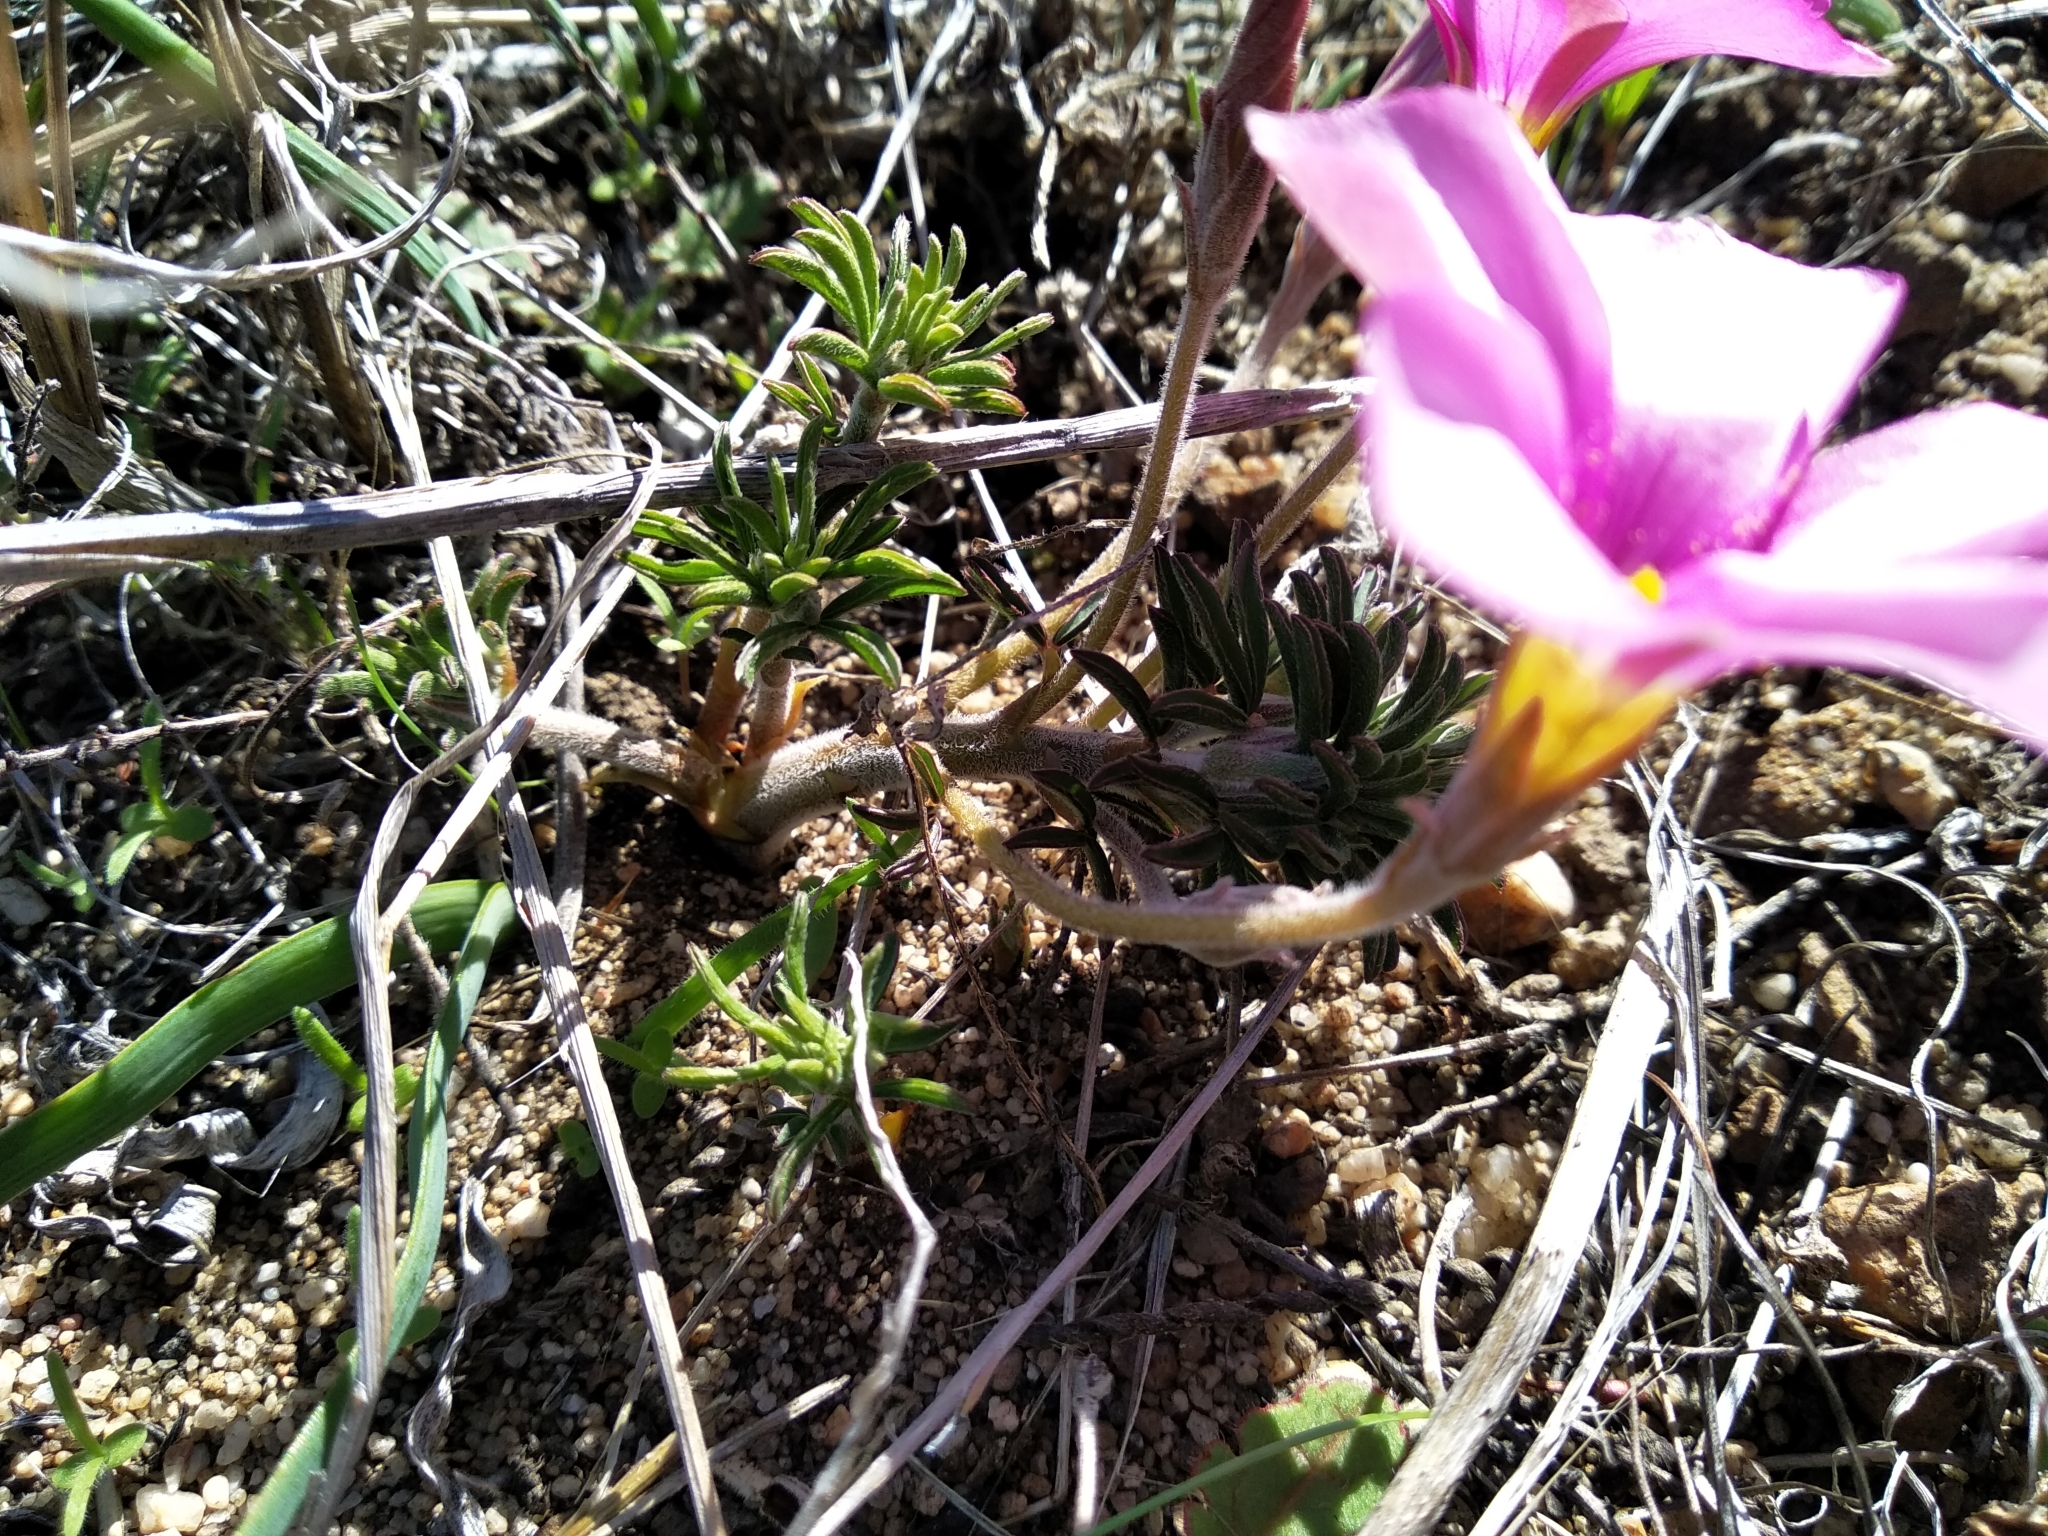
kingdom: Plantae
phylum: Tracheophyta
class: Magnoliopsida
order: Oxalidales
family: Oxalidaceae
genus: Oxalis
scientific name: Oxalis hirta
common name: Tropical woodsorrel
